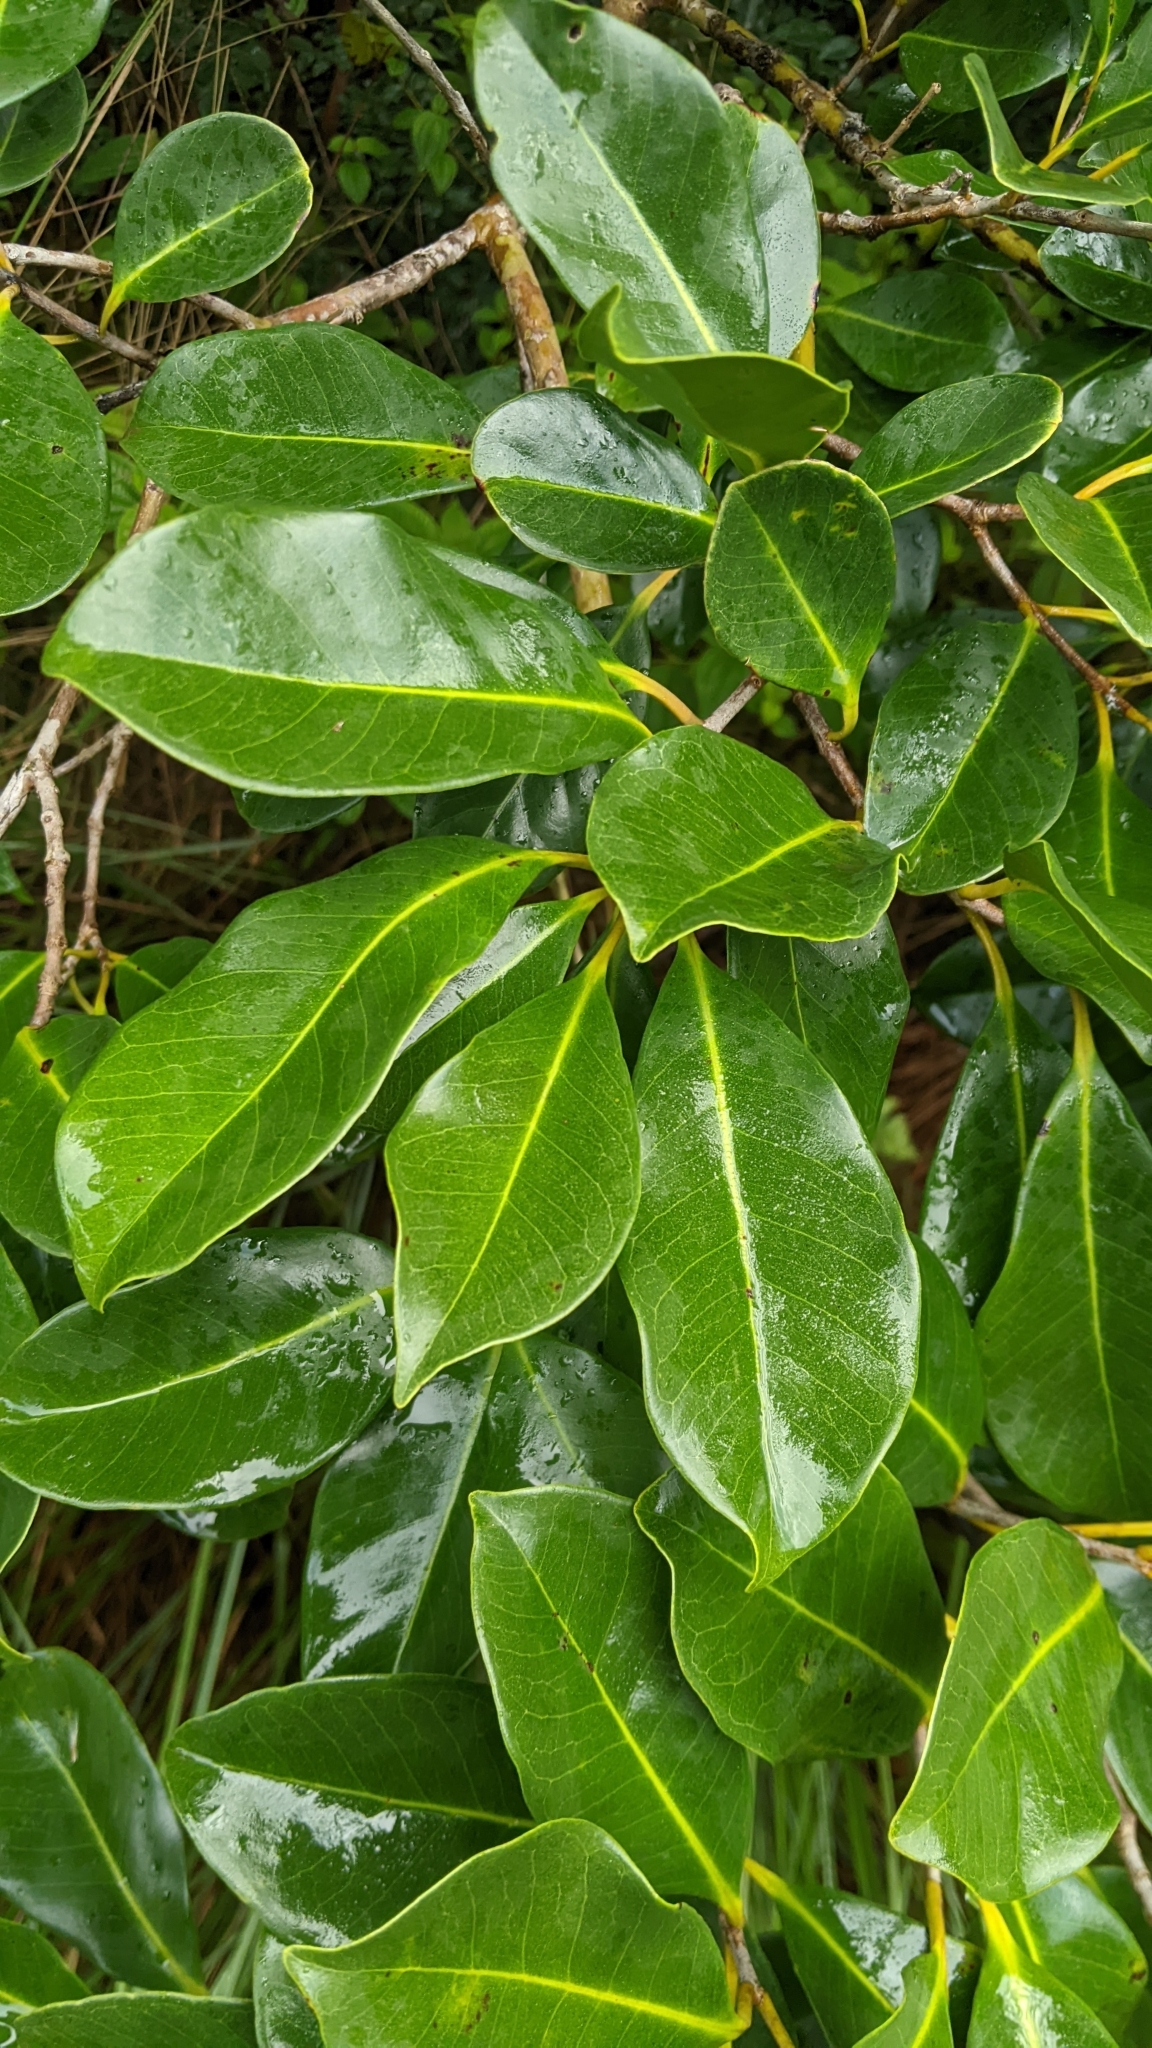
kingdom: Plantae
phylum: Tracheophyta
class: Magnoliopsida
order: Myrtales
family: Myrtaceae
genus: Psidium
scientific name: Psidium cattleianum
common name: Strawberry guava
